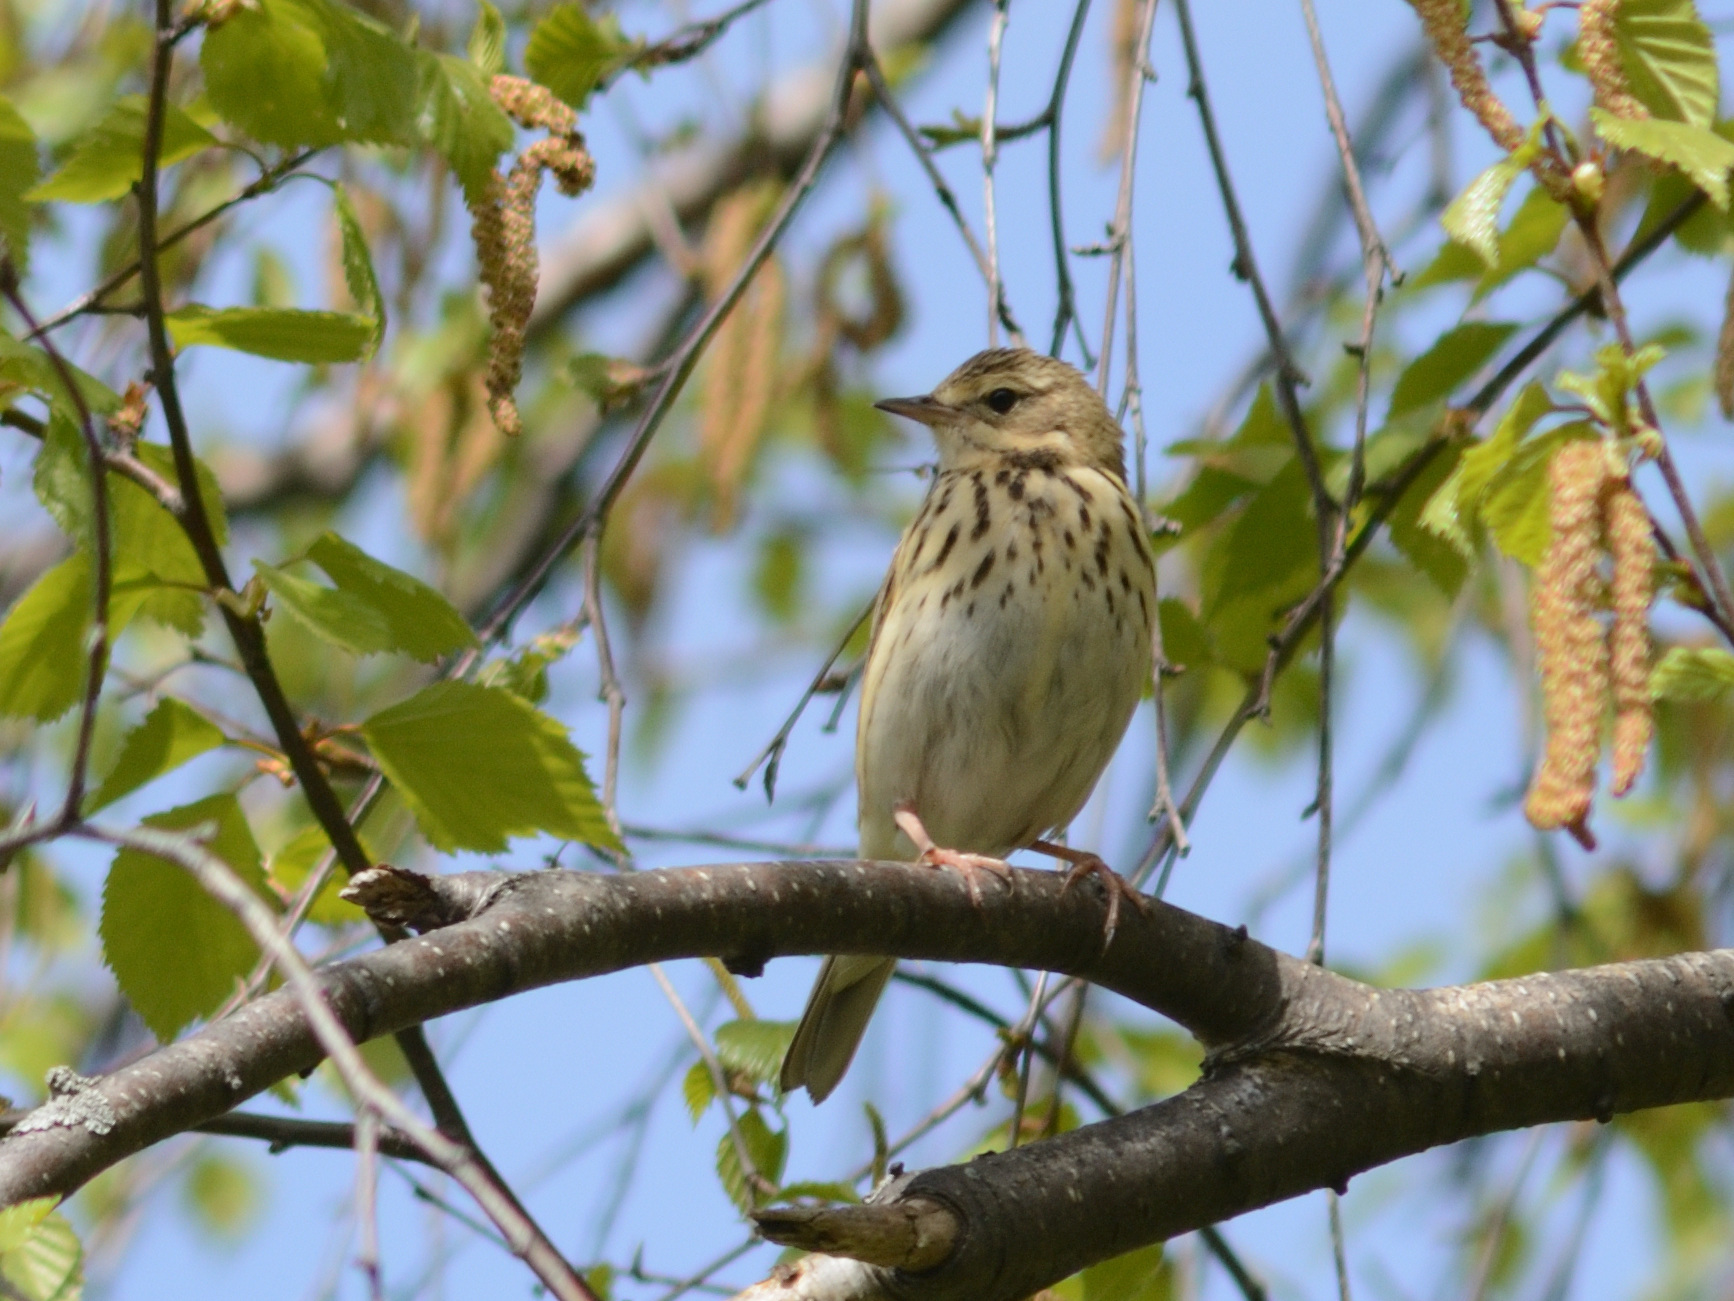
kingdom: Animalia
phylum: Chordata
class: Aves
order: Passeriformes
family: Motacillidae
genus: Anthus
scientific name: Anthus trivialis
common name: Tree pipit
